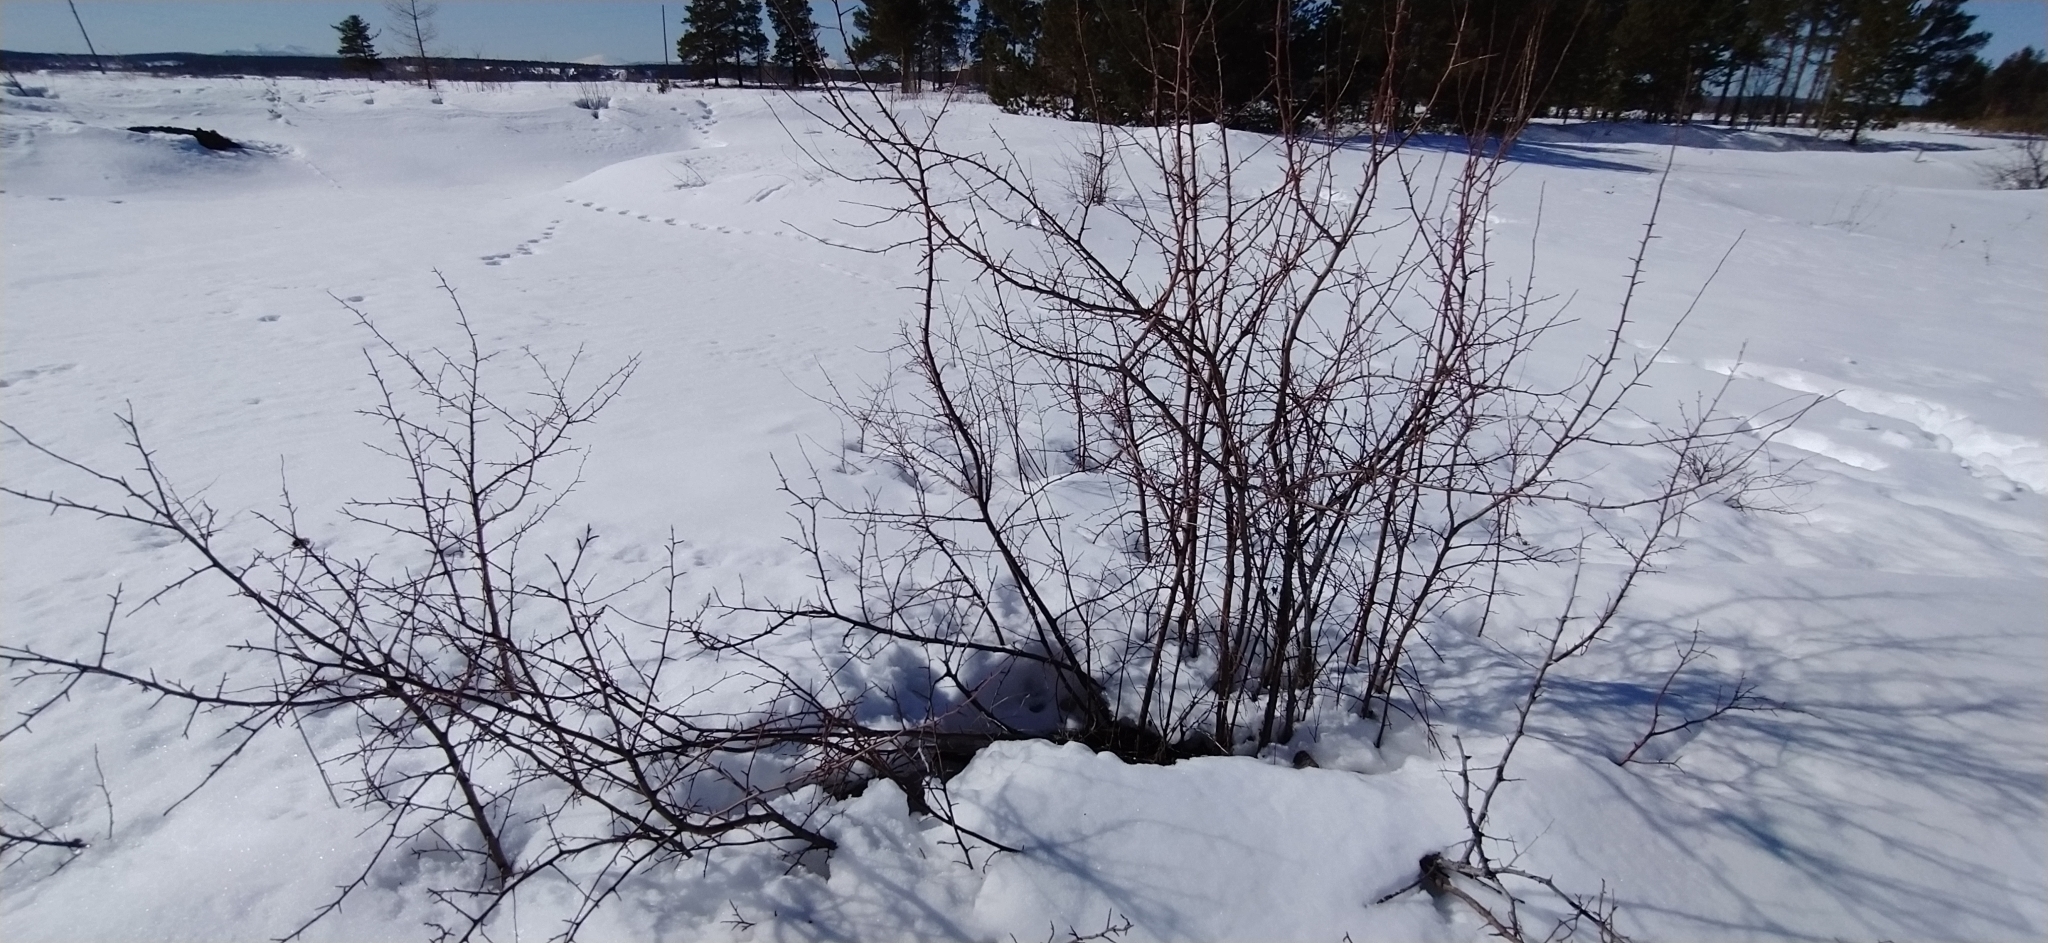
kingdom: Plantae
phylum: Tracheophyta
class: Magnoliopsida
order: Rosales
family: Rosaceae
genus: Malus
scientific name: Malus baccata
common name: Siberian crab
